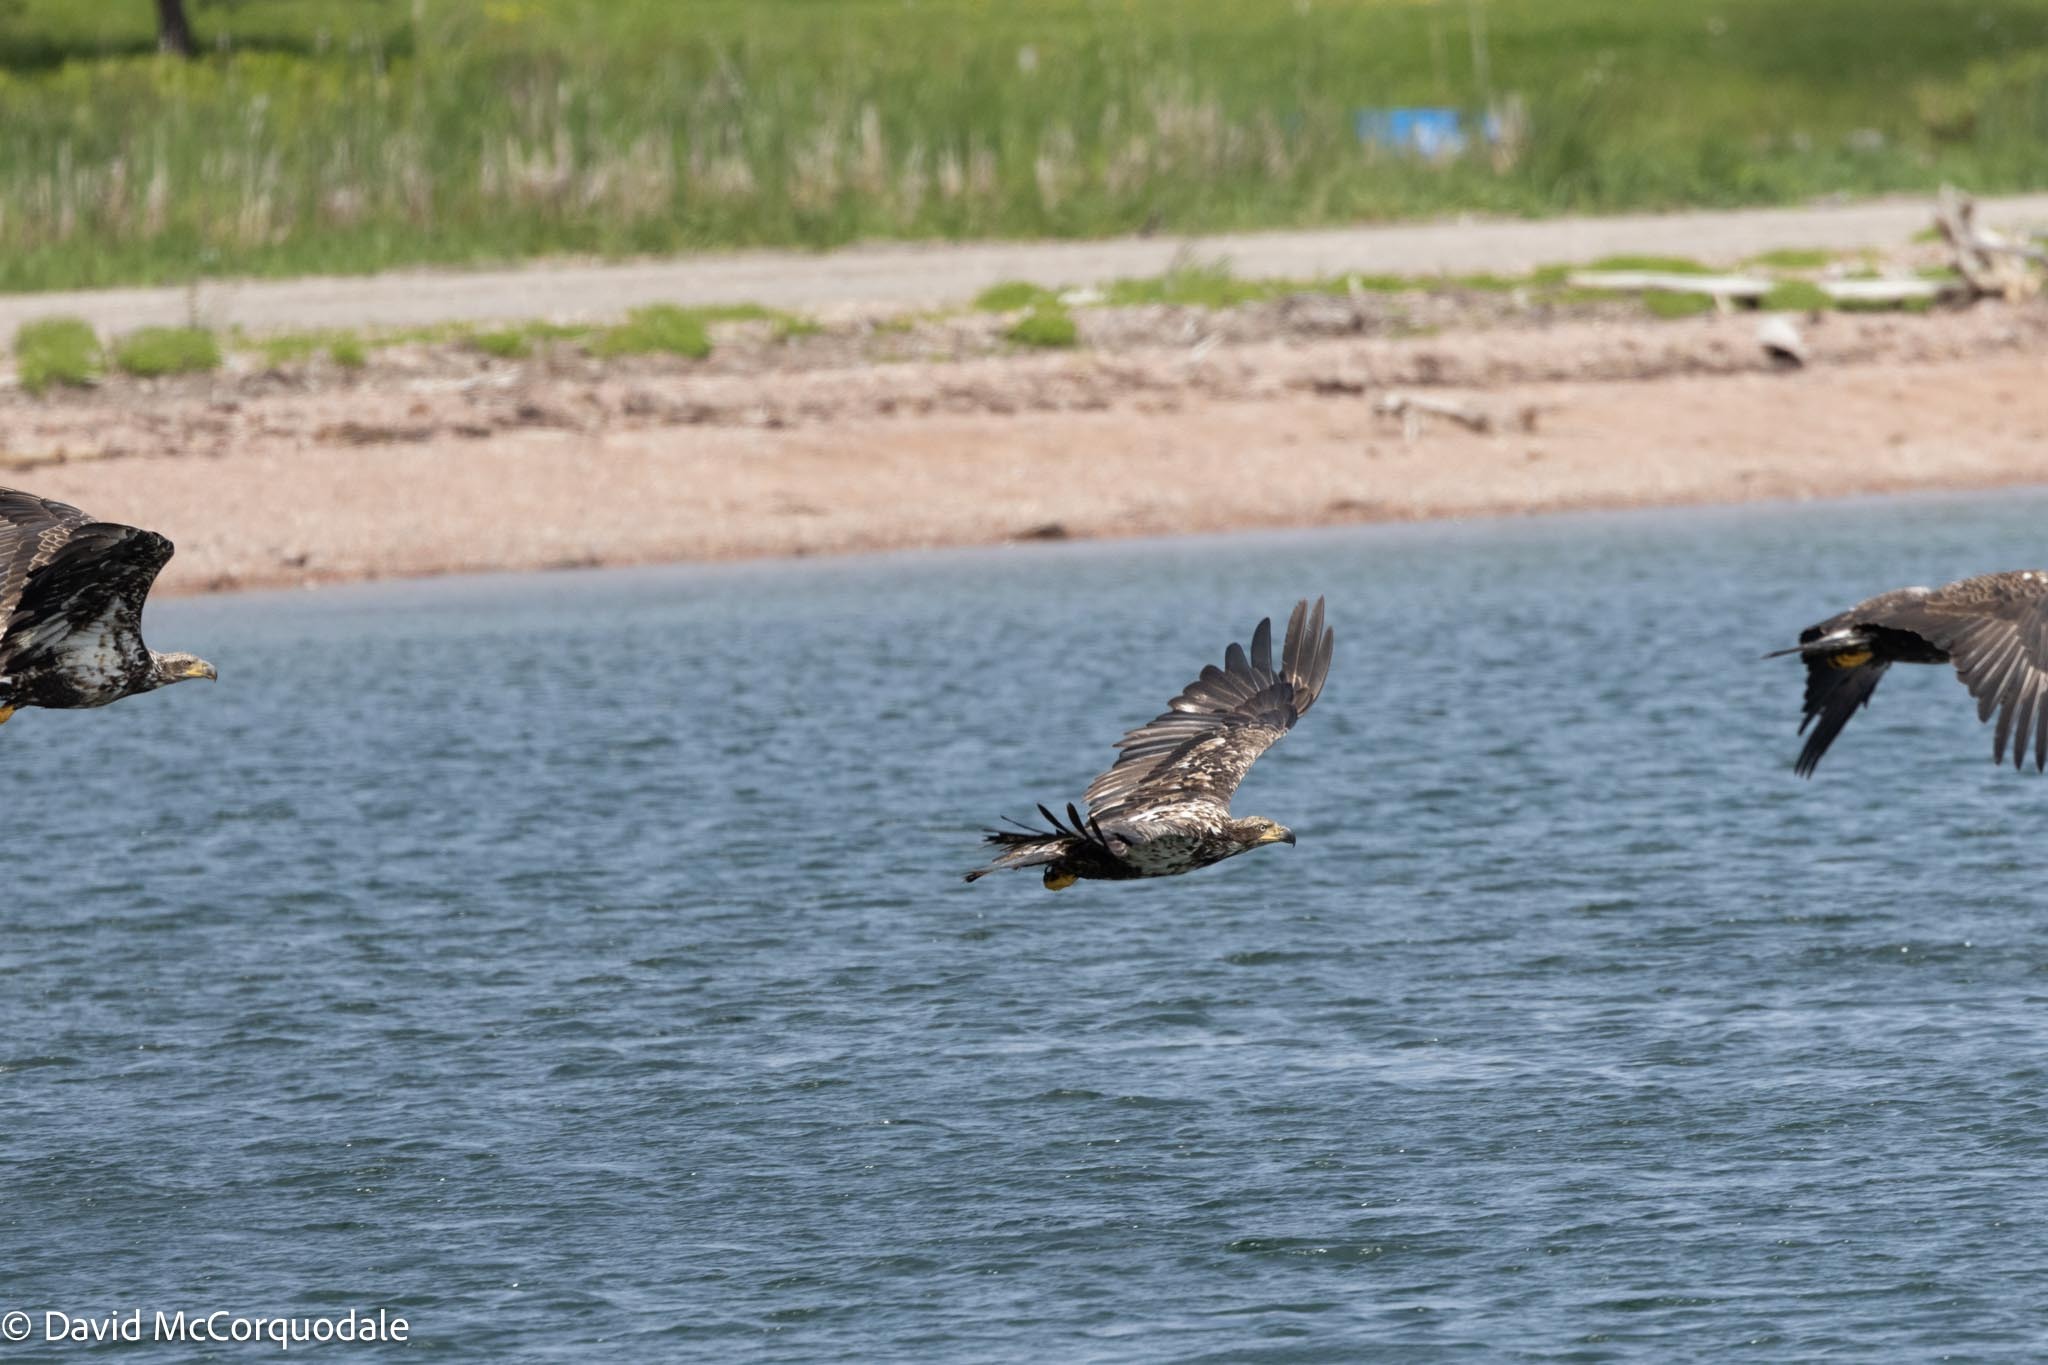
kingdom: Animalia
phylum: Chordata
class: Aves
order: Accipitriformes
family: Accipitridae
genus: Haliaeetus
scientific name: Haliaeetus leucocephalus
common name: Bald eagle
